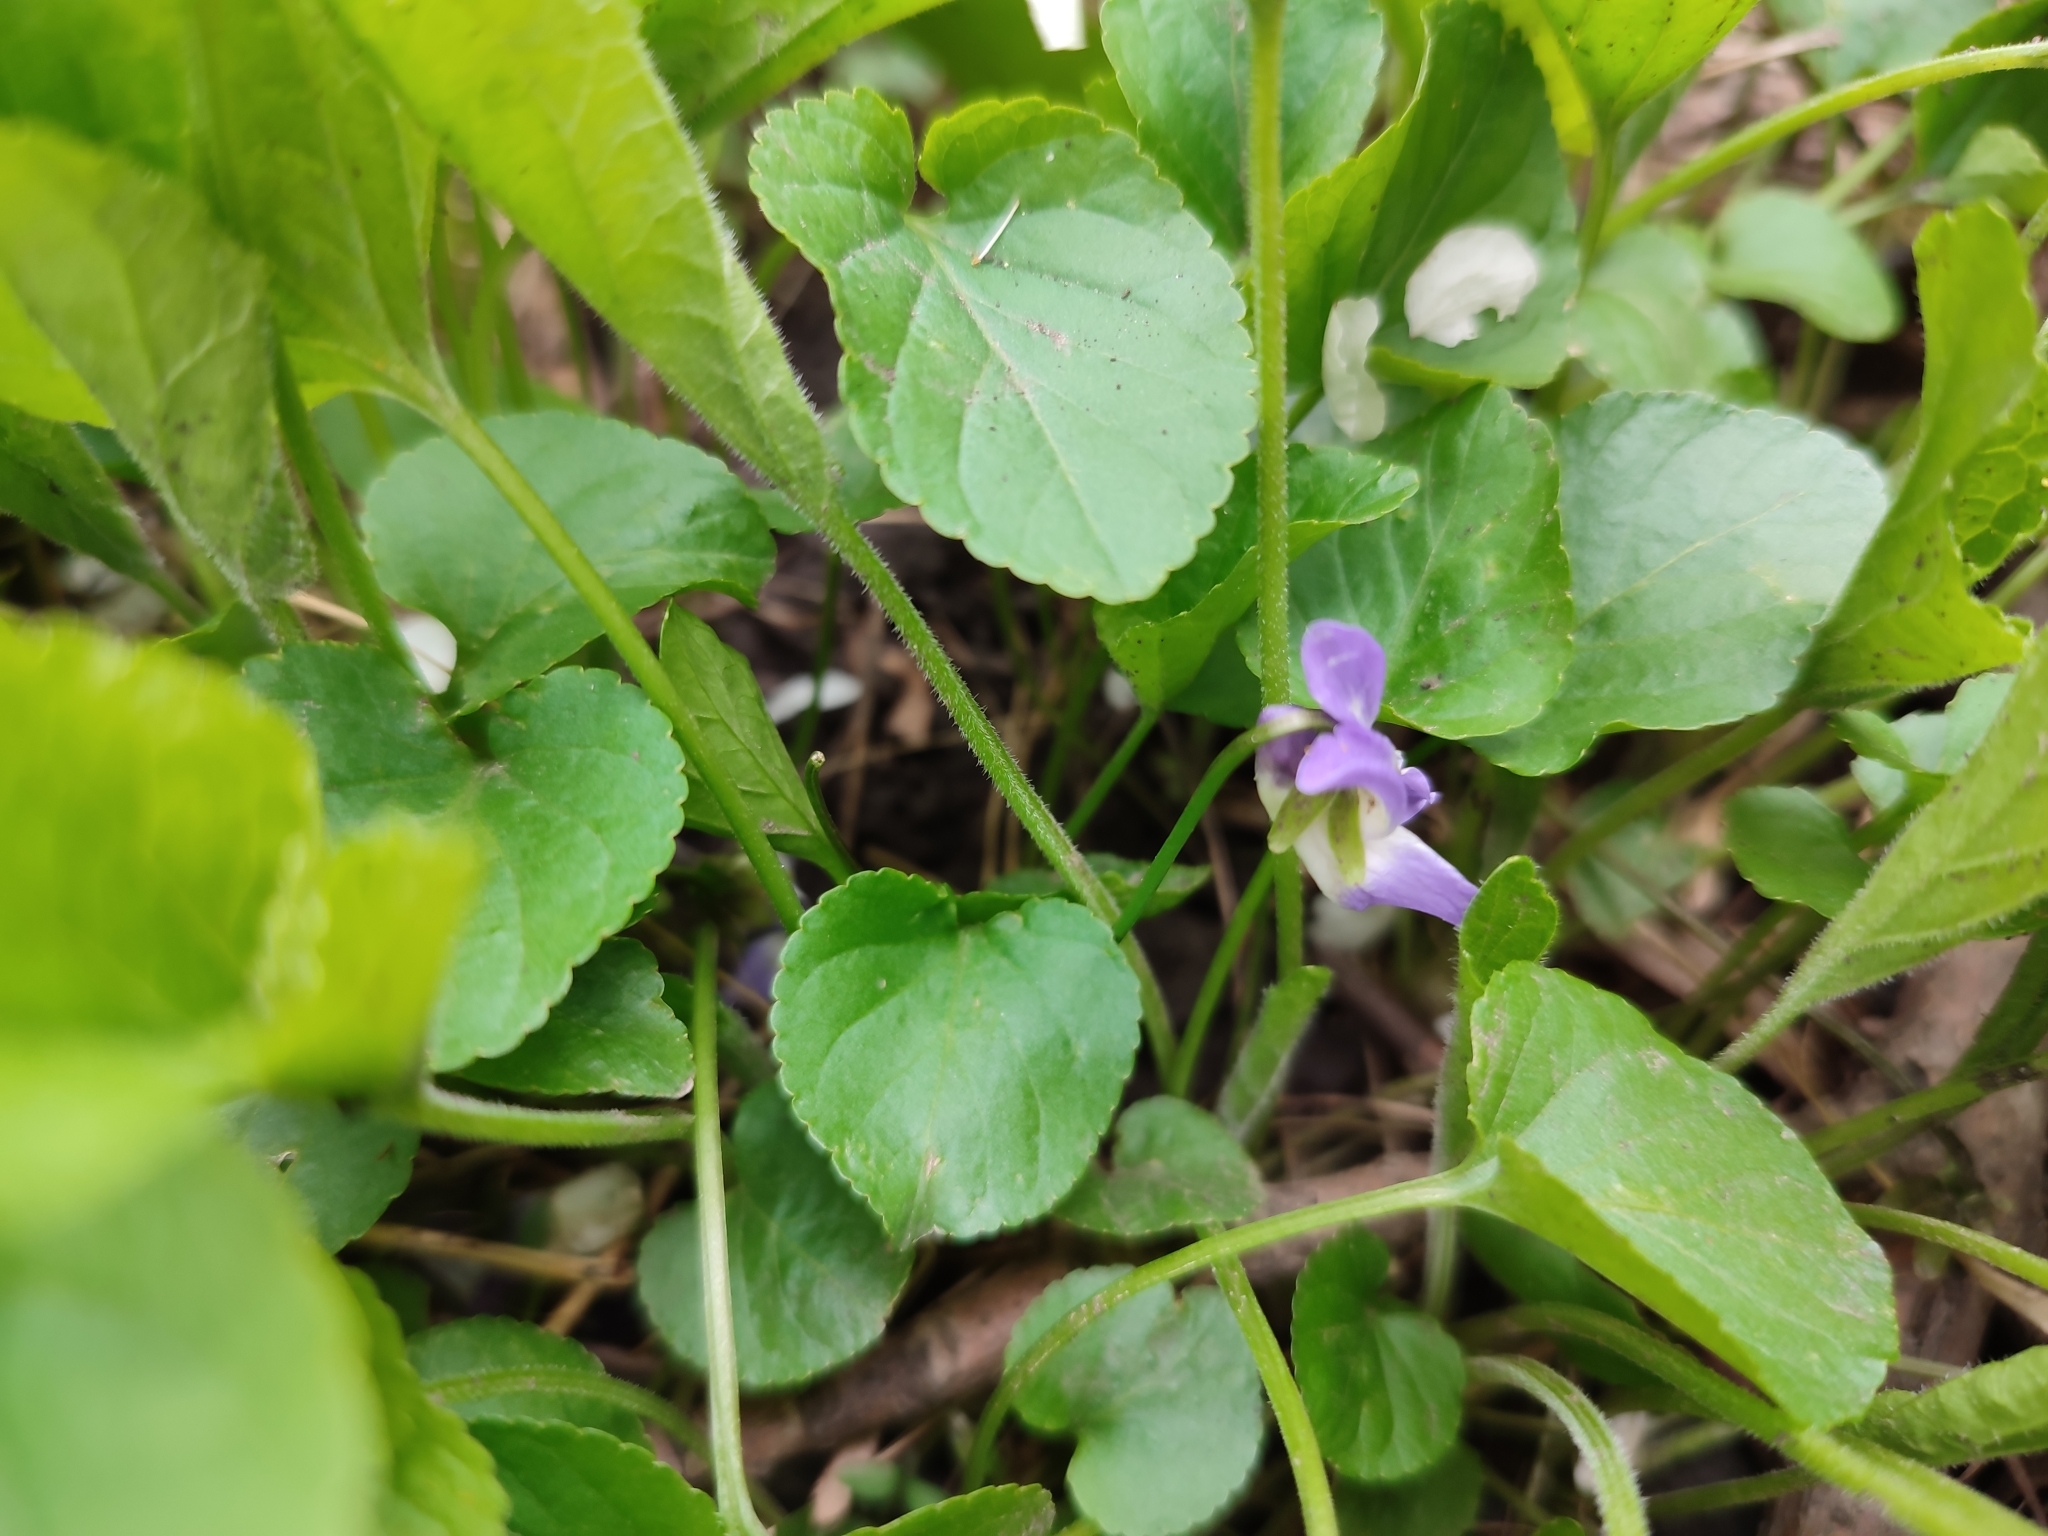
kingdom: Plantae
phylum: Tracheophyta
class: Magnoliopsida
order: Malpighiales
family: Violaceae
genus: Viola
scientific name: Viola odorata
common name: Sweet violet
